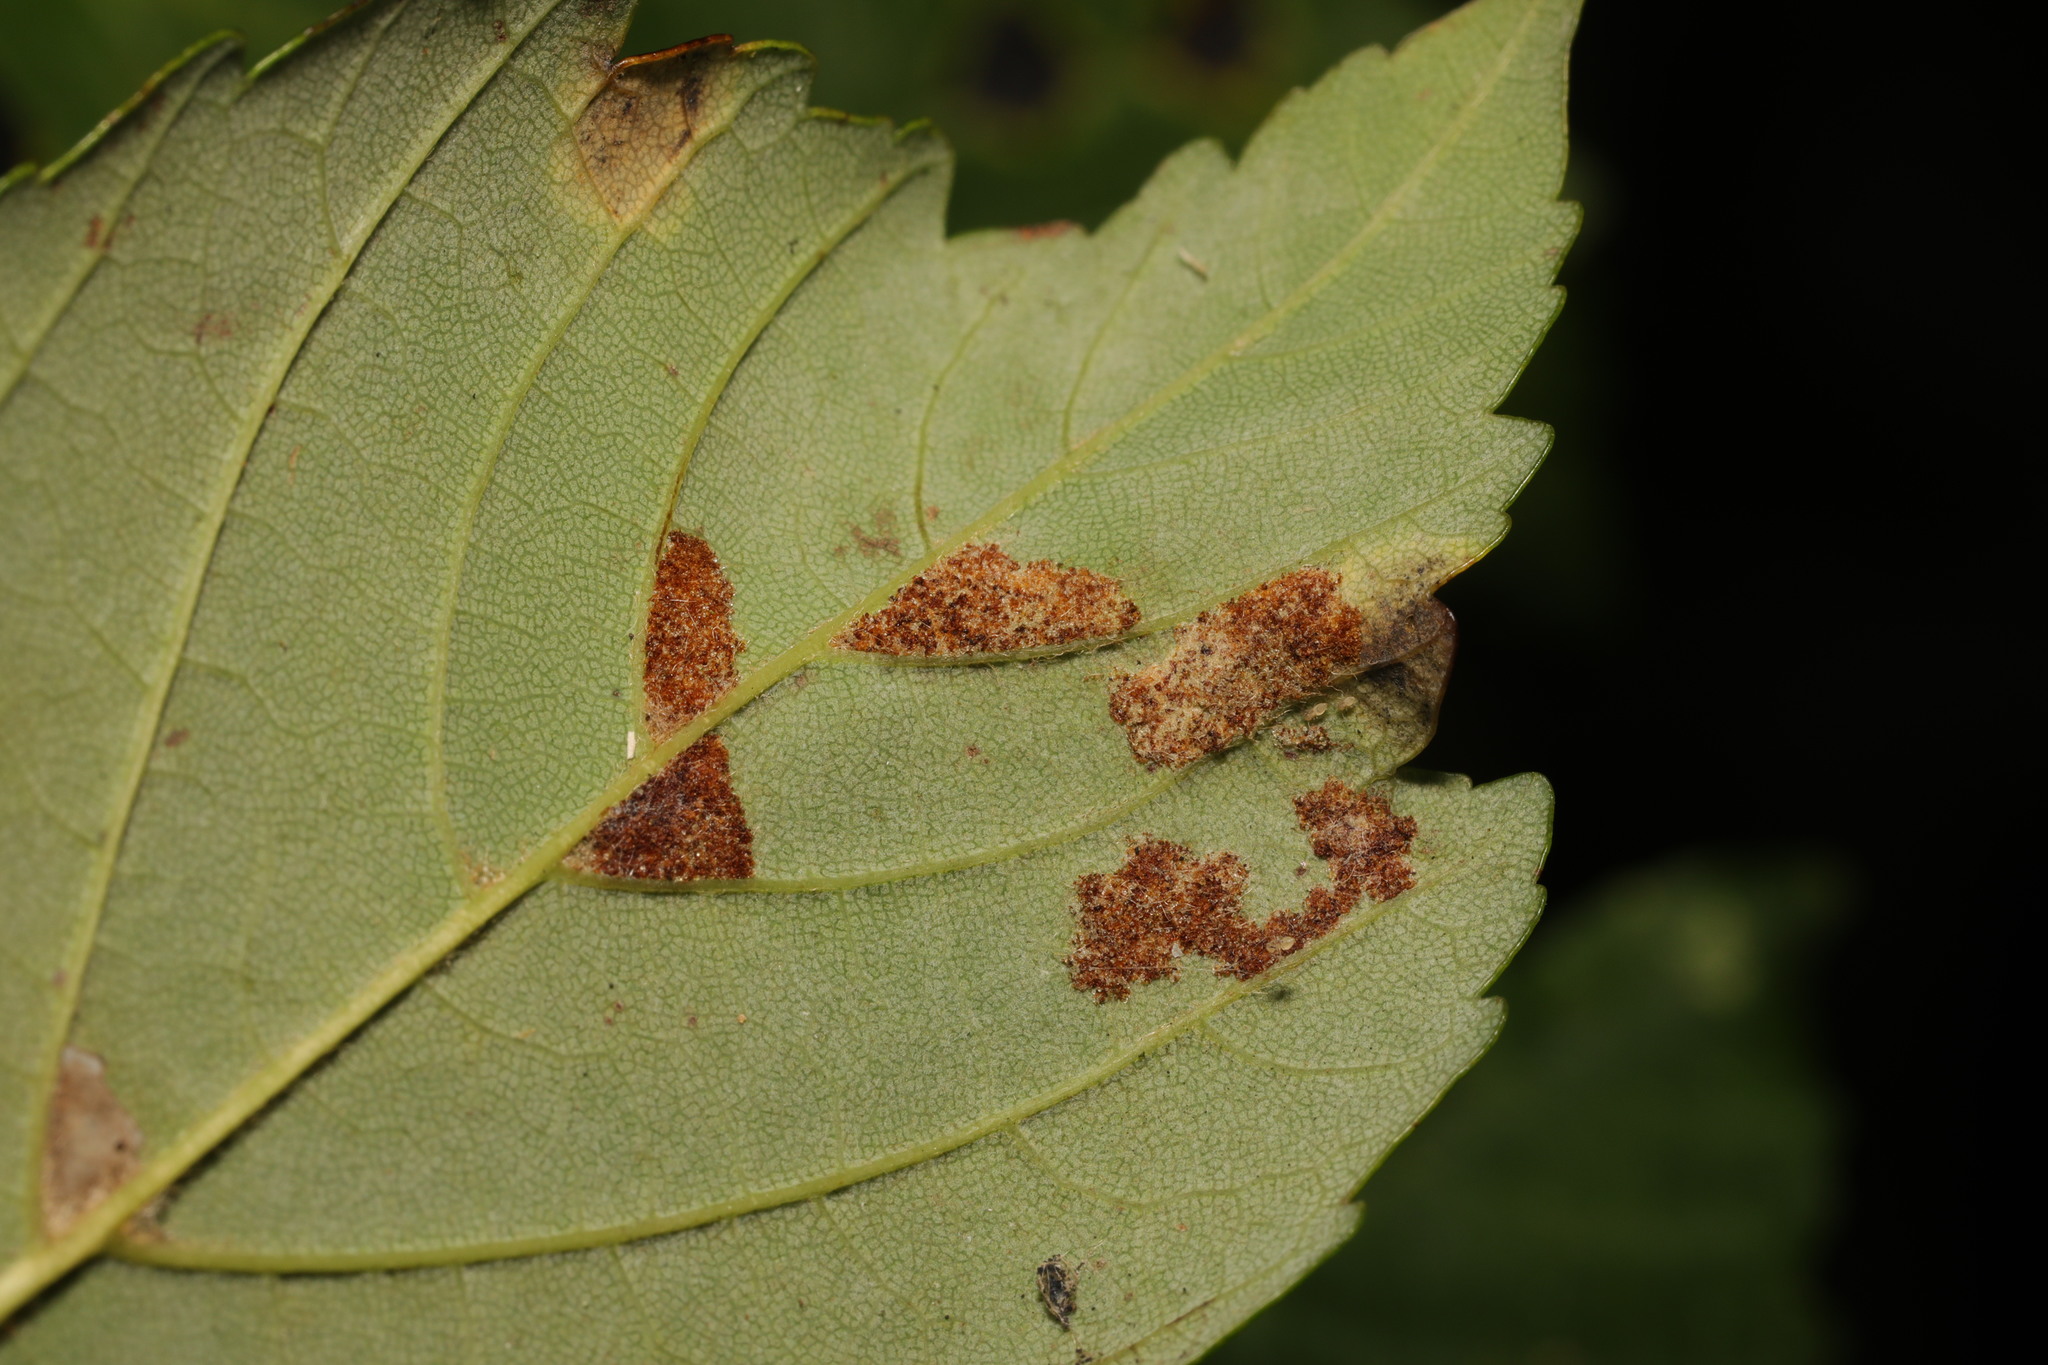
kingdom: Animalia
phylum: Arthropoda
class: Arachnida
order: Trombidiformes
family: Eriophyidae
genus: Aceria
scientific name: Aceria pseudoplatani
